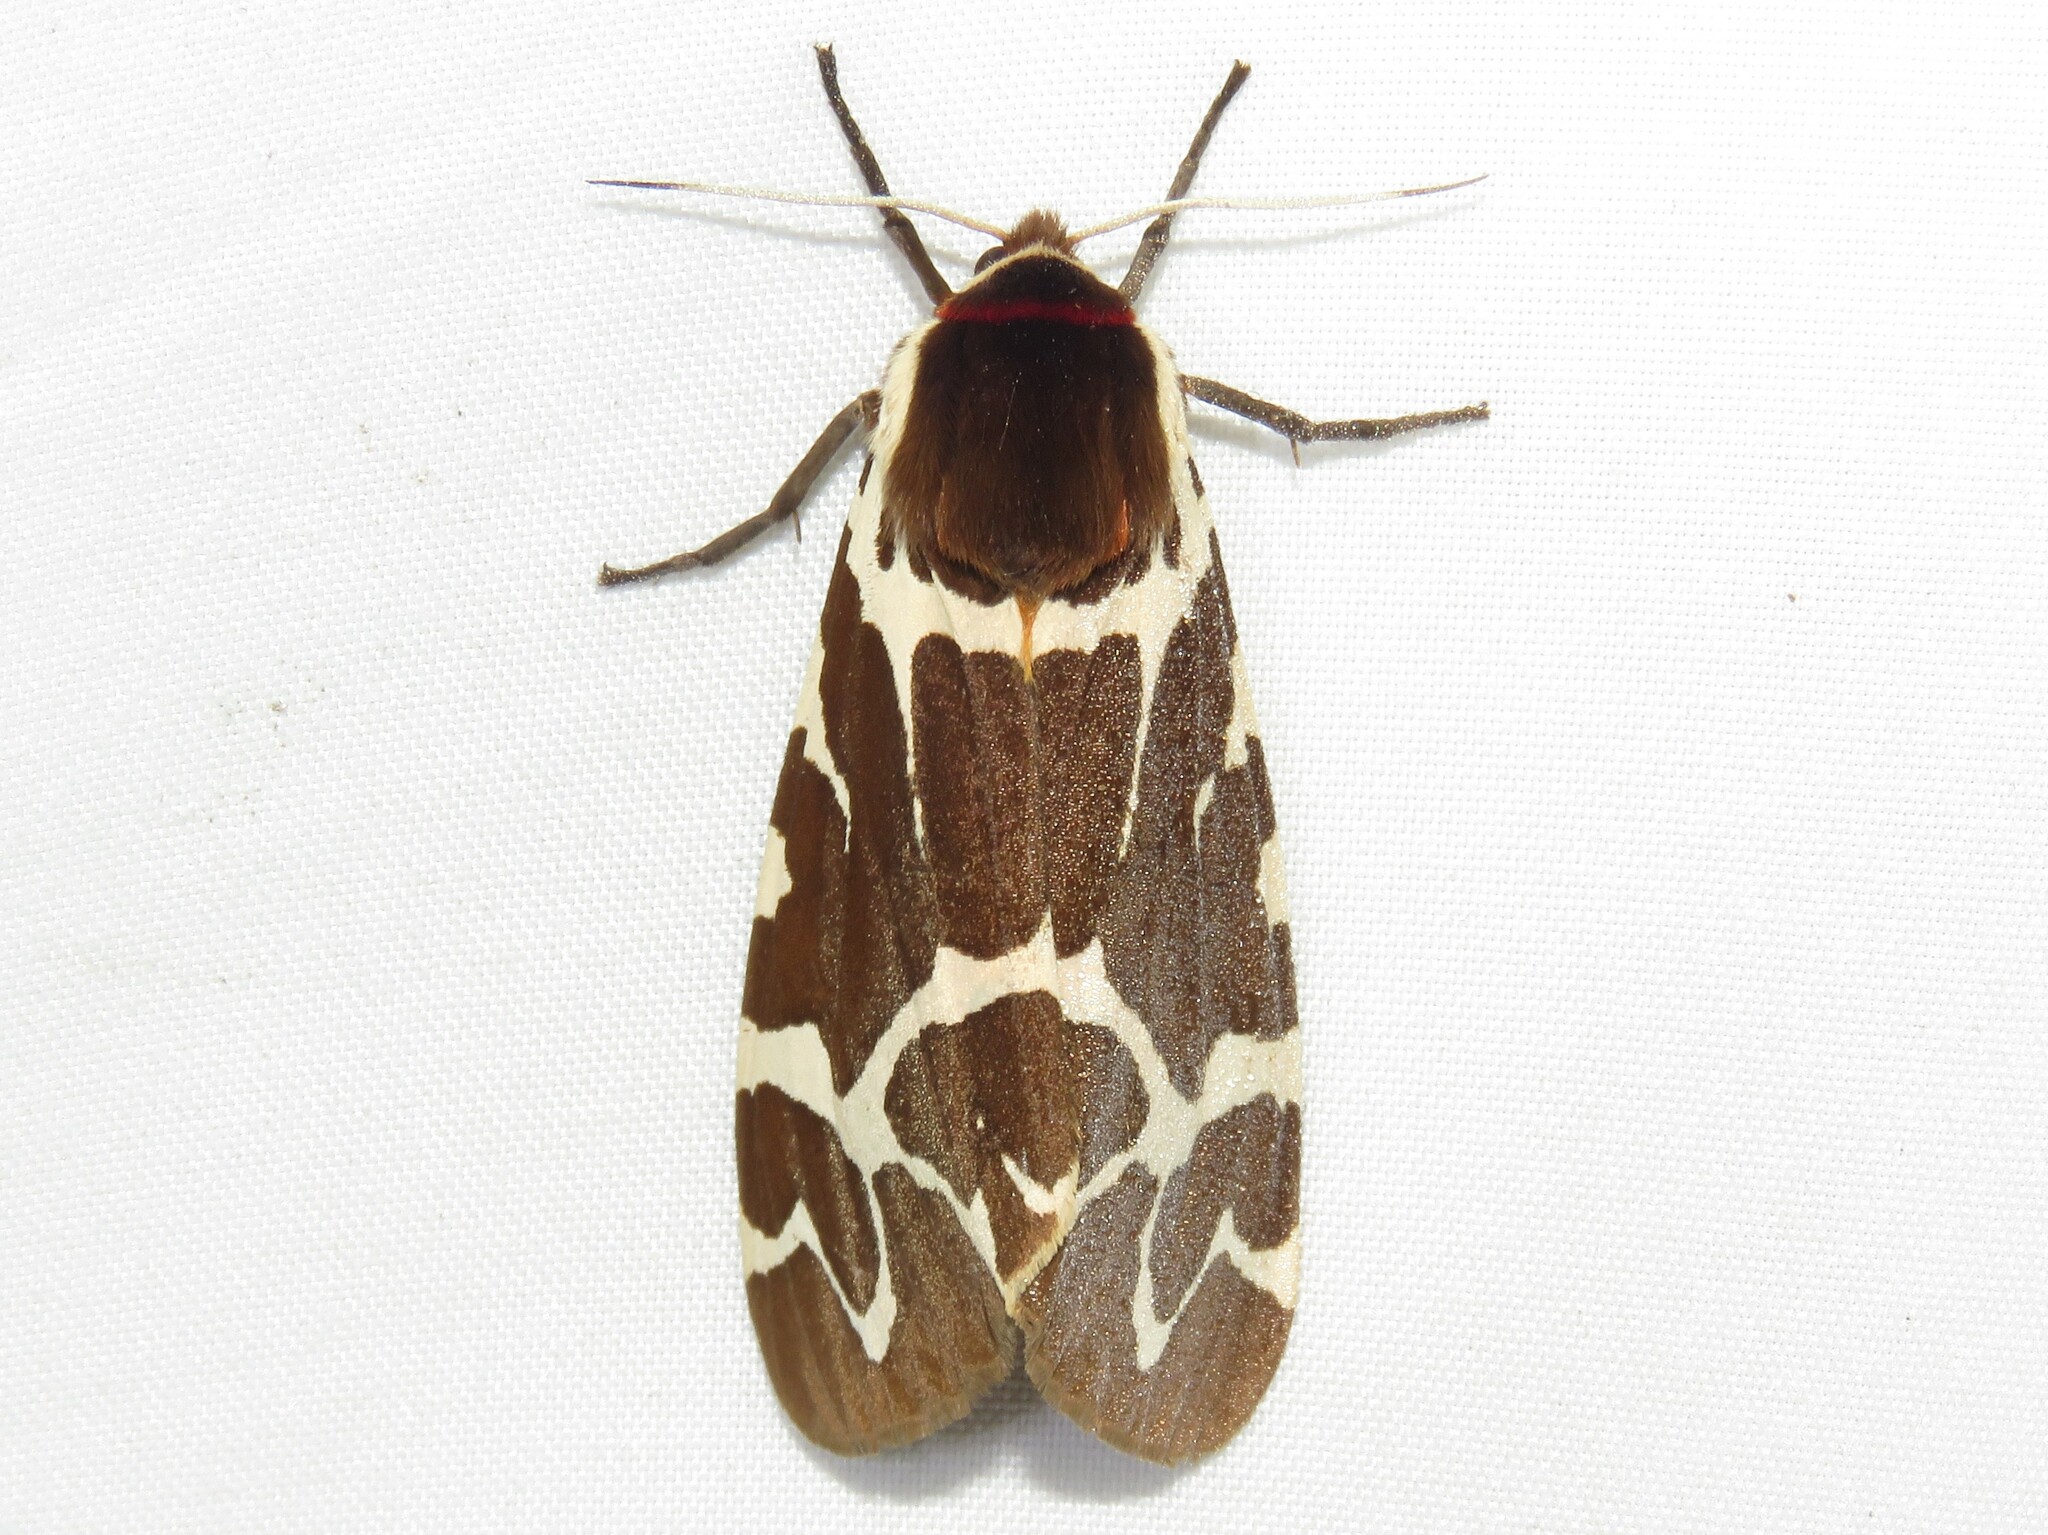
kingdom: Animalia
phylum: Arthropoda
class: Insecta
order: Lepidoptera
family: Erebidae
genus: Arctia
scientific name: Arctia caja
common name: Garden tiger
